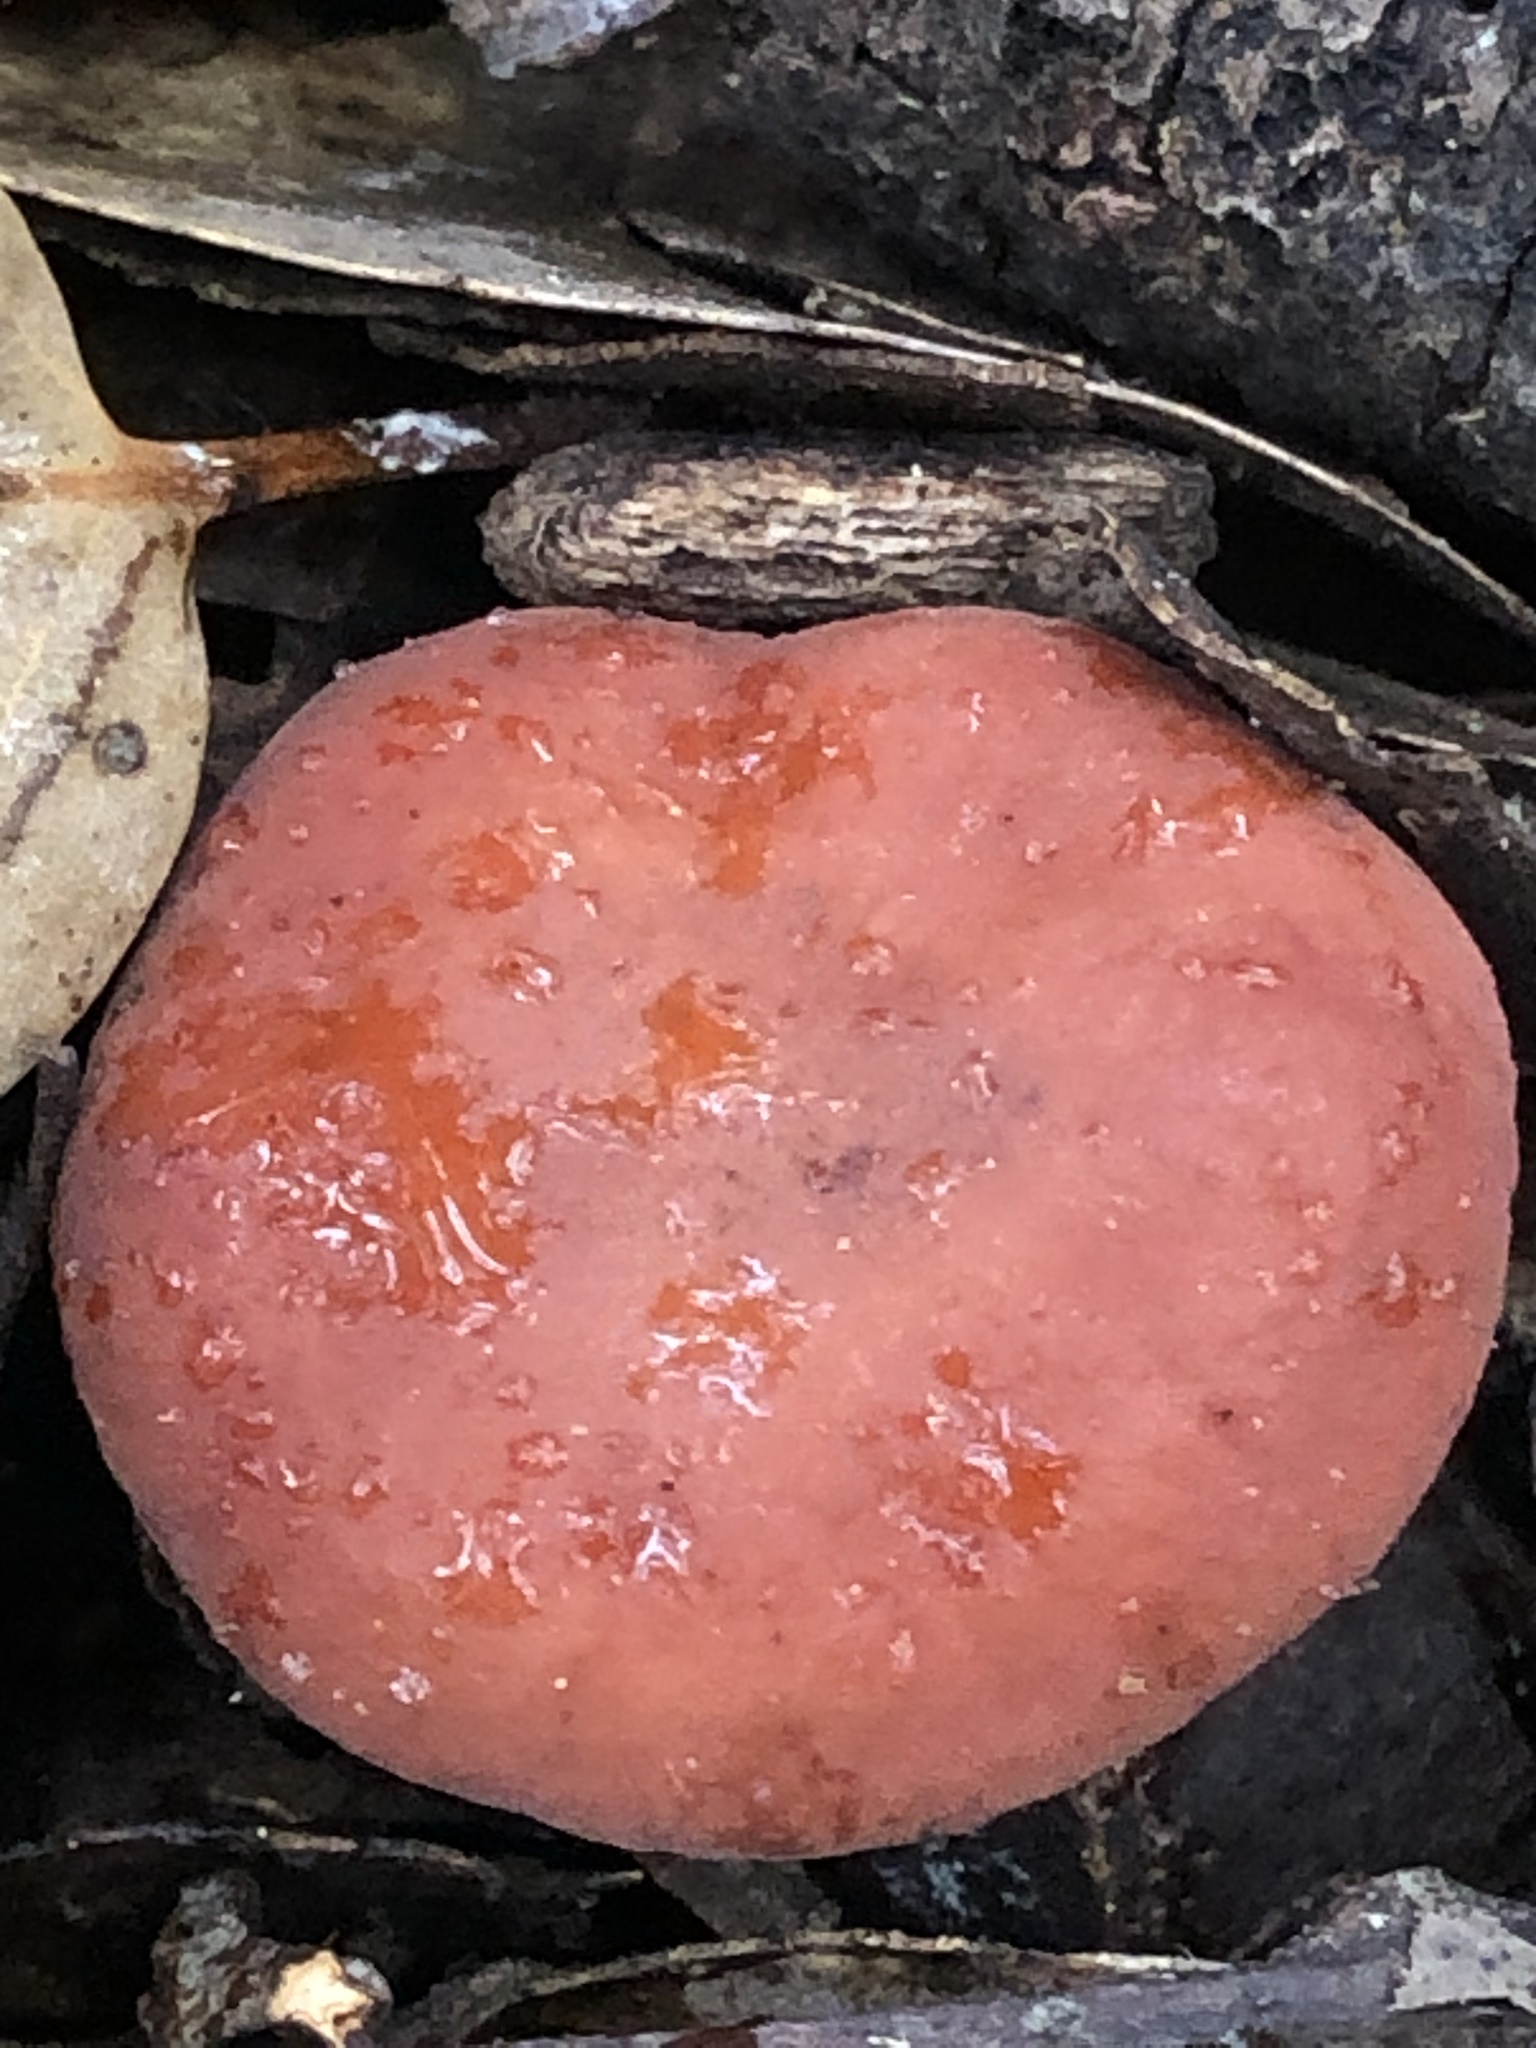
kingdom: Fungi
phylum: Basidiomycota
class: Agaricomycetes
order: Russulales
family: Russulaceae
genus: Lactarius
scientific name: Lactarius rufulus
